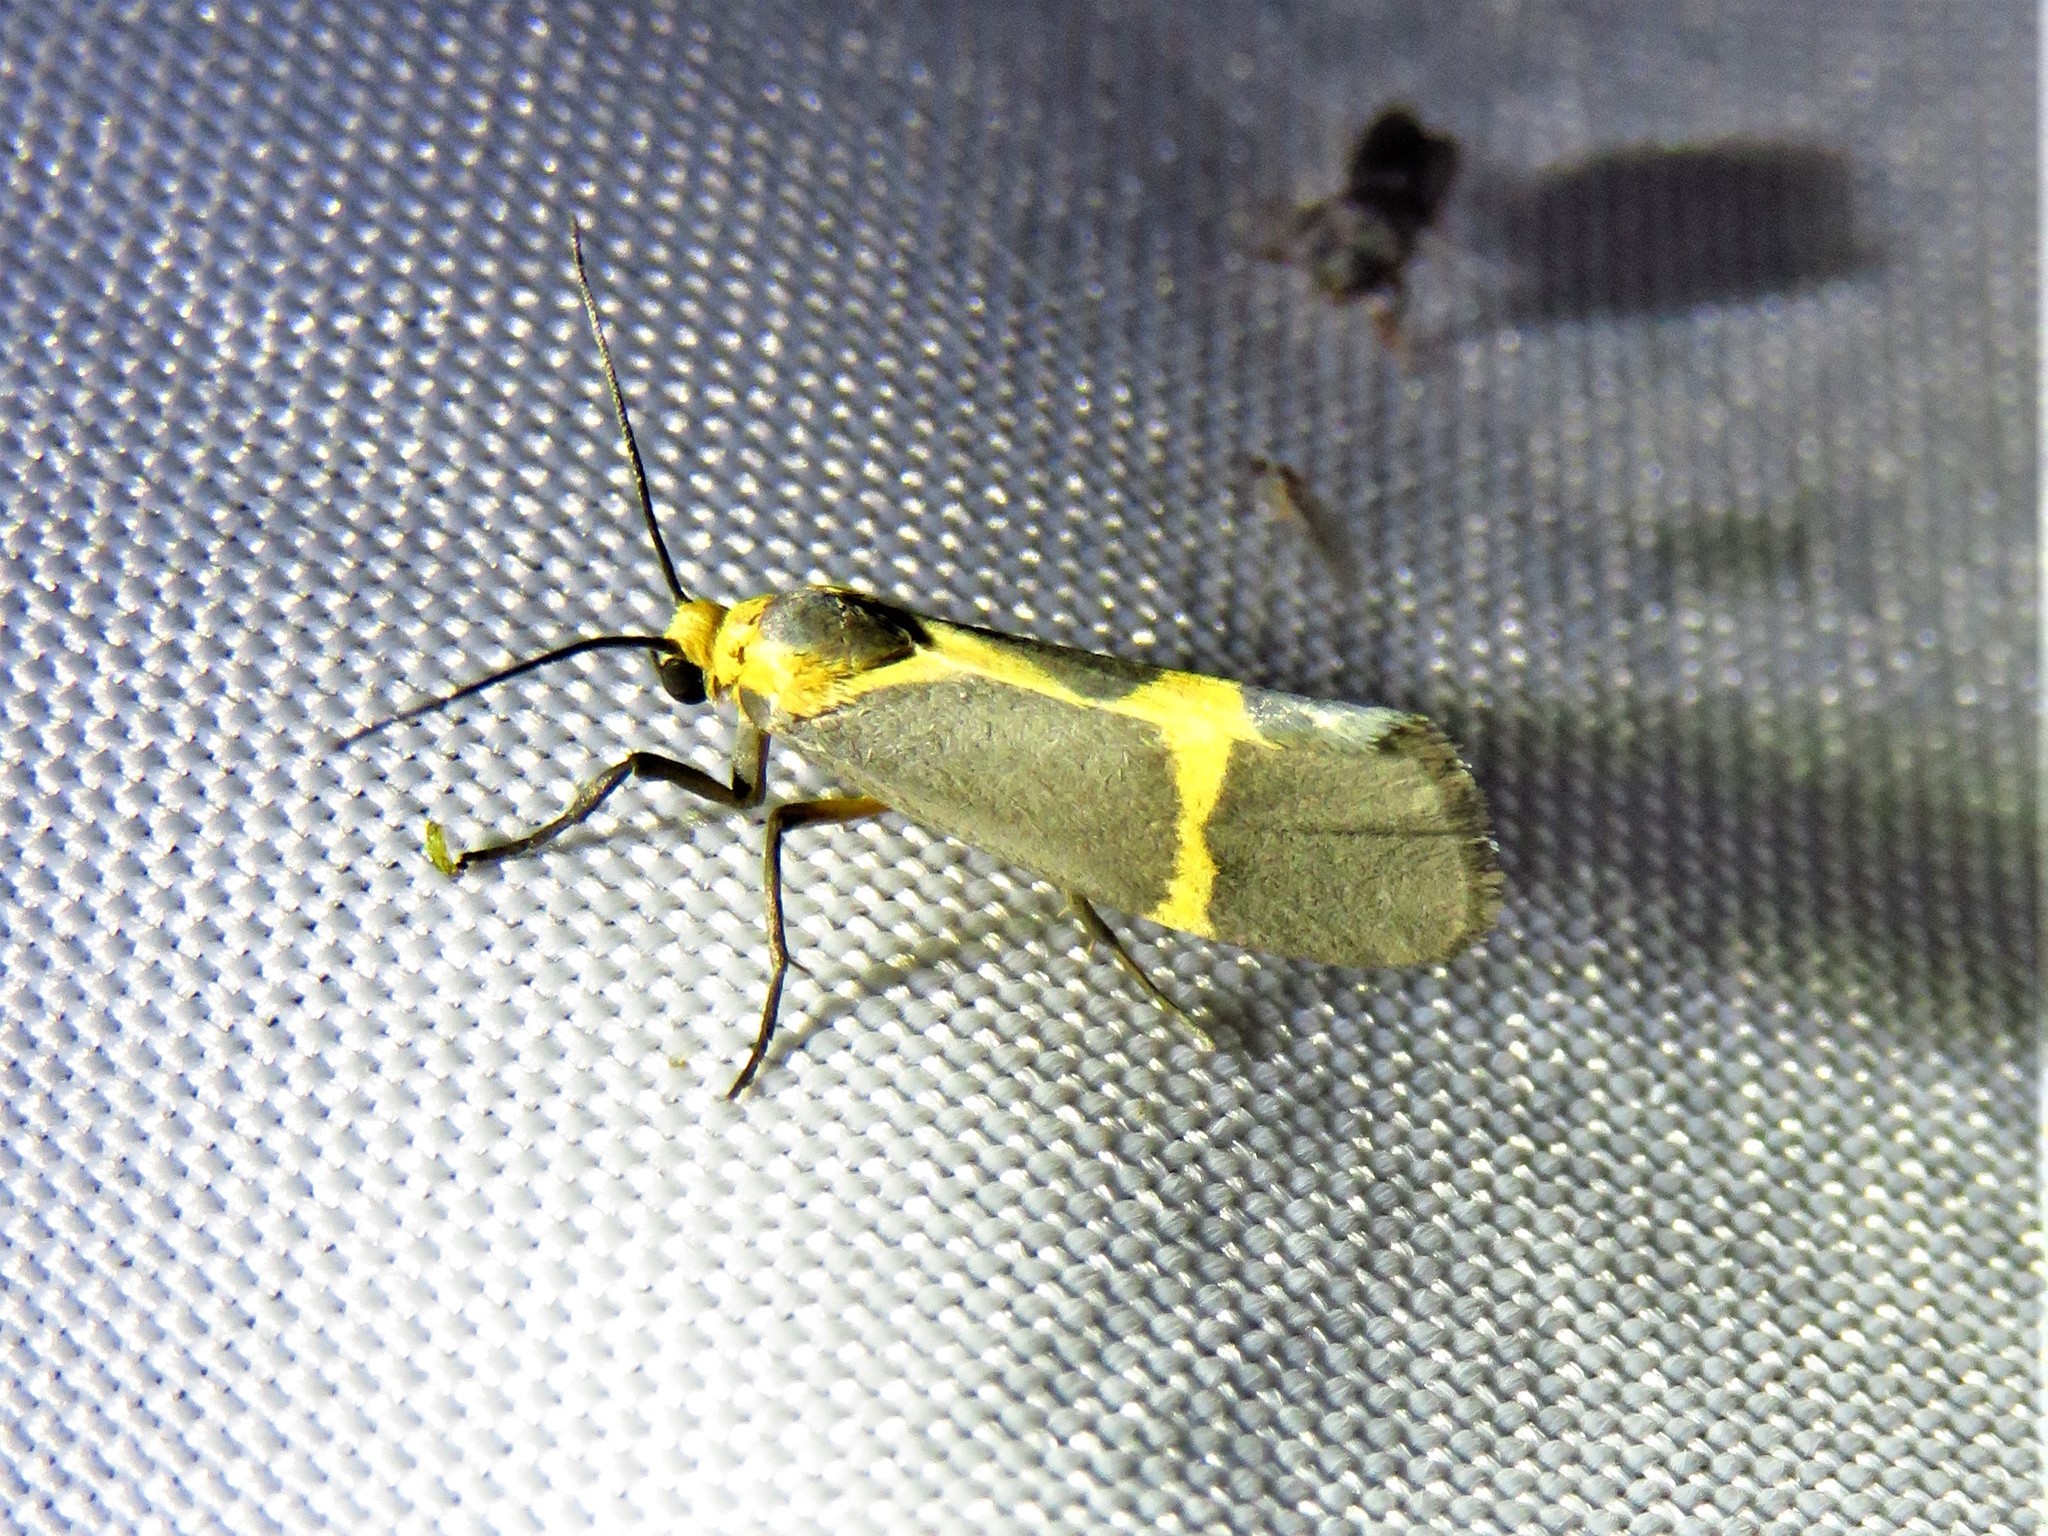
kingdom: Animalia
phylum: Arthropoda
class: Insecta
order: Lepidoptera
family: Erebidae
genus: Cisthene
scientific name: Cisthene tenuifascia
